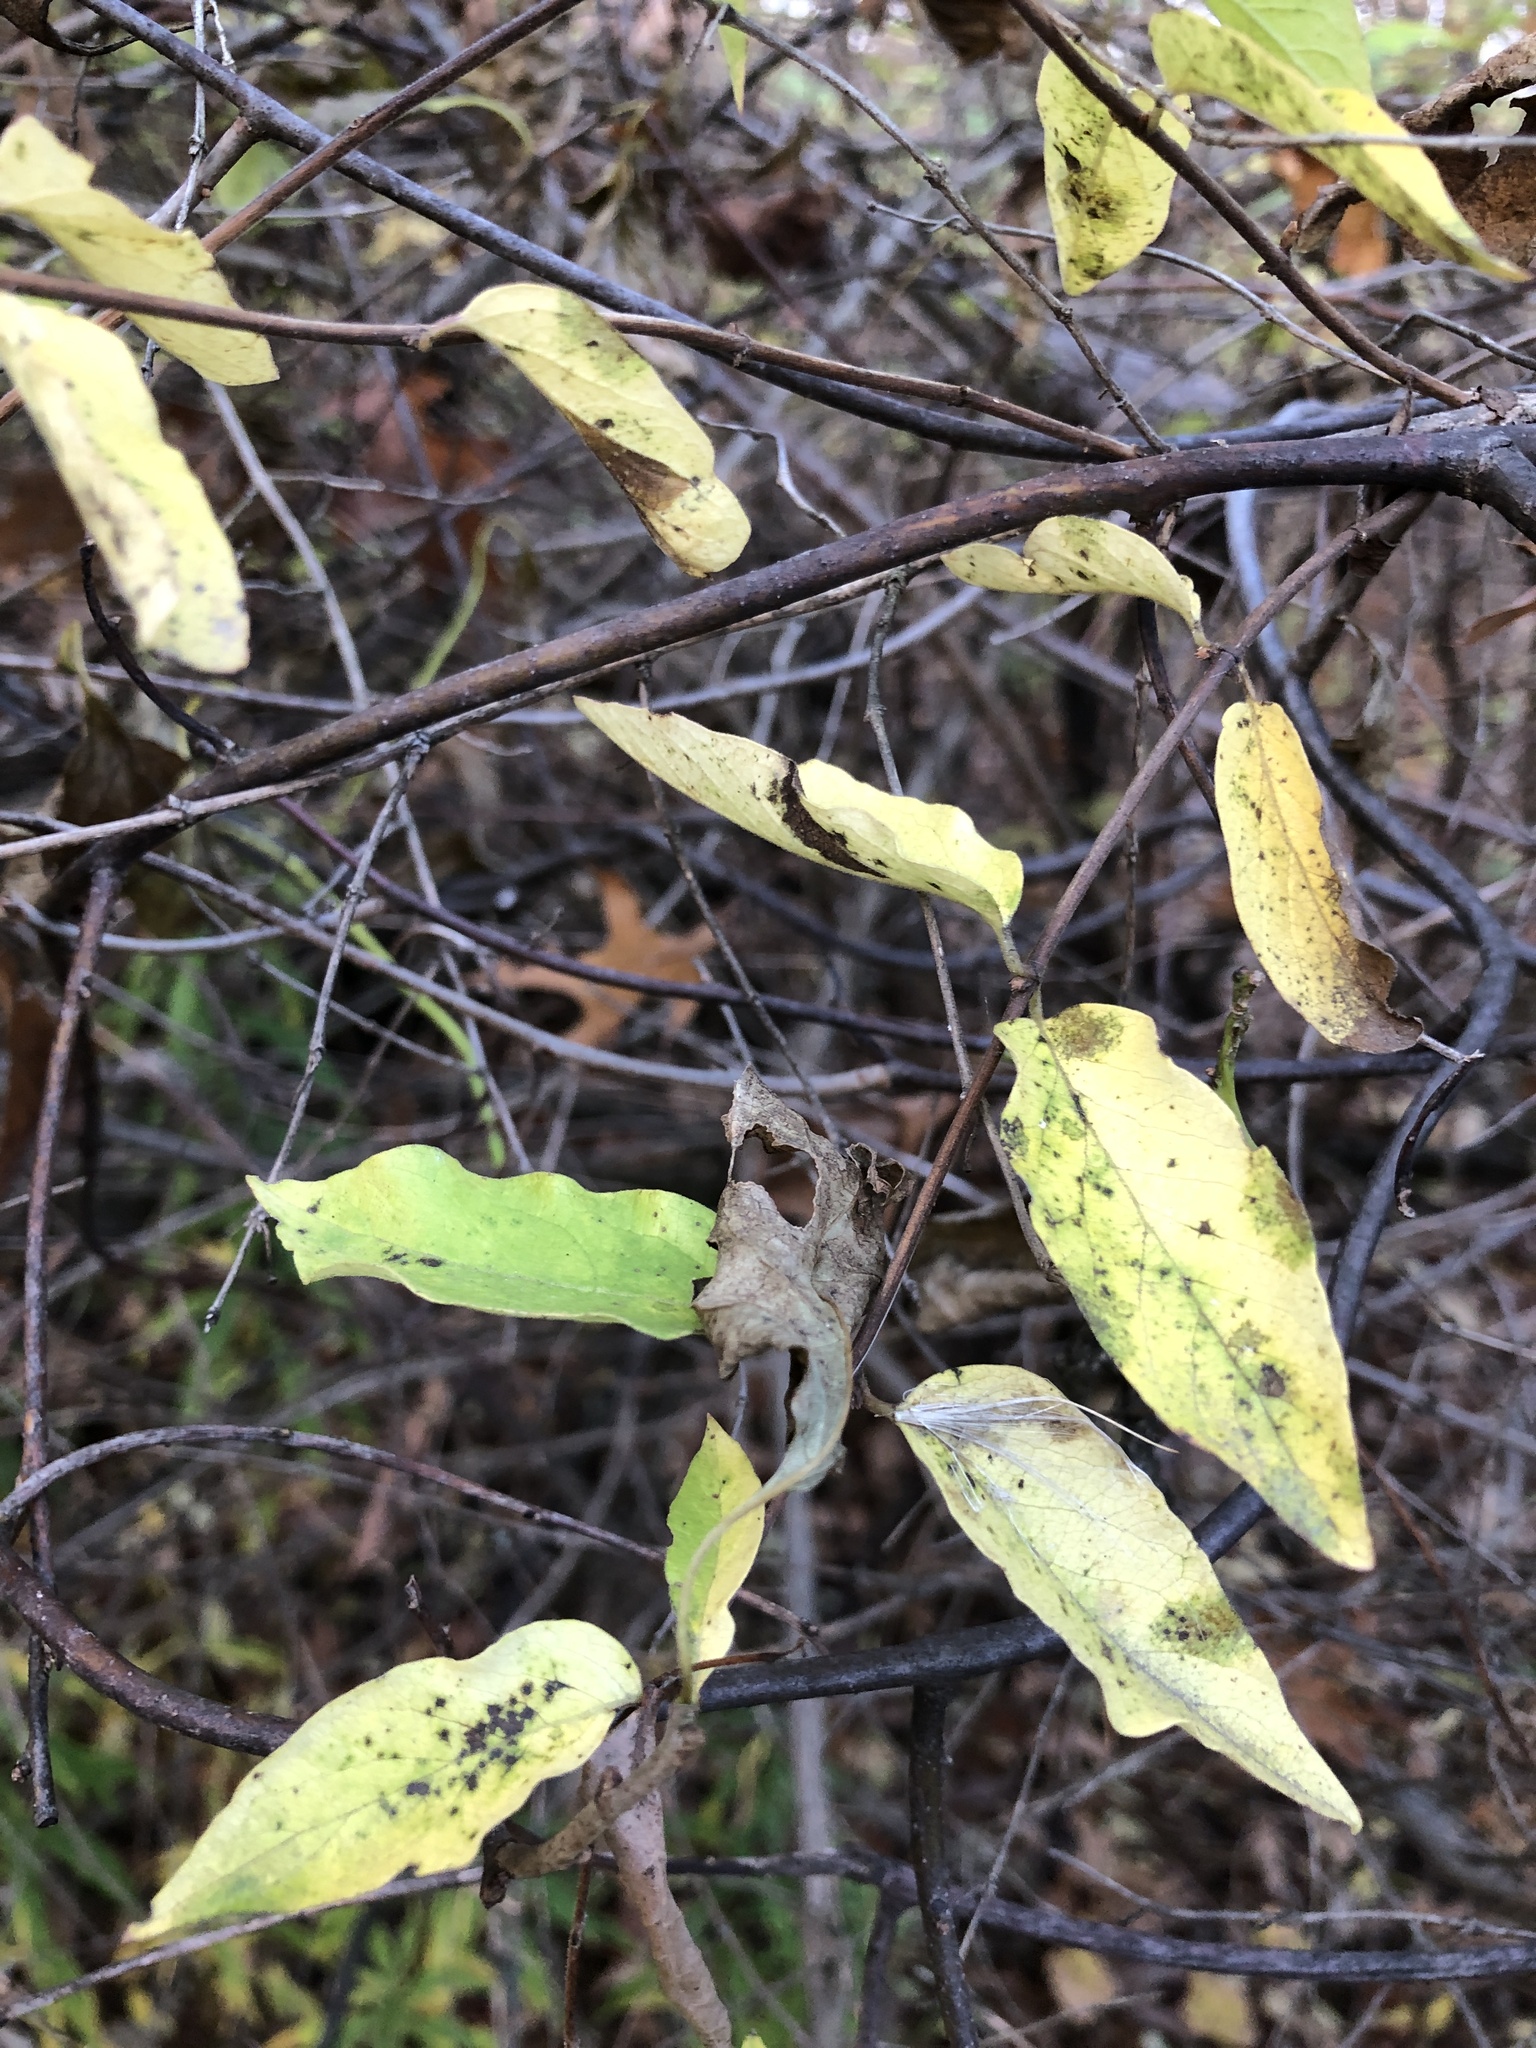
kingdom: Plantae
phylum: Tracheophyta
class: Magnoliopsida
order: Celastrales
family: Celastraceae
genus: Celastrus
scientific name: Celastrus scandens
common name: American bittersweet
